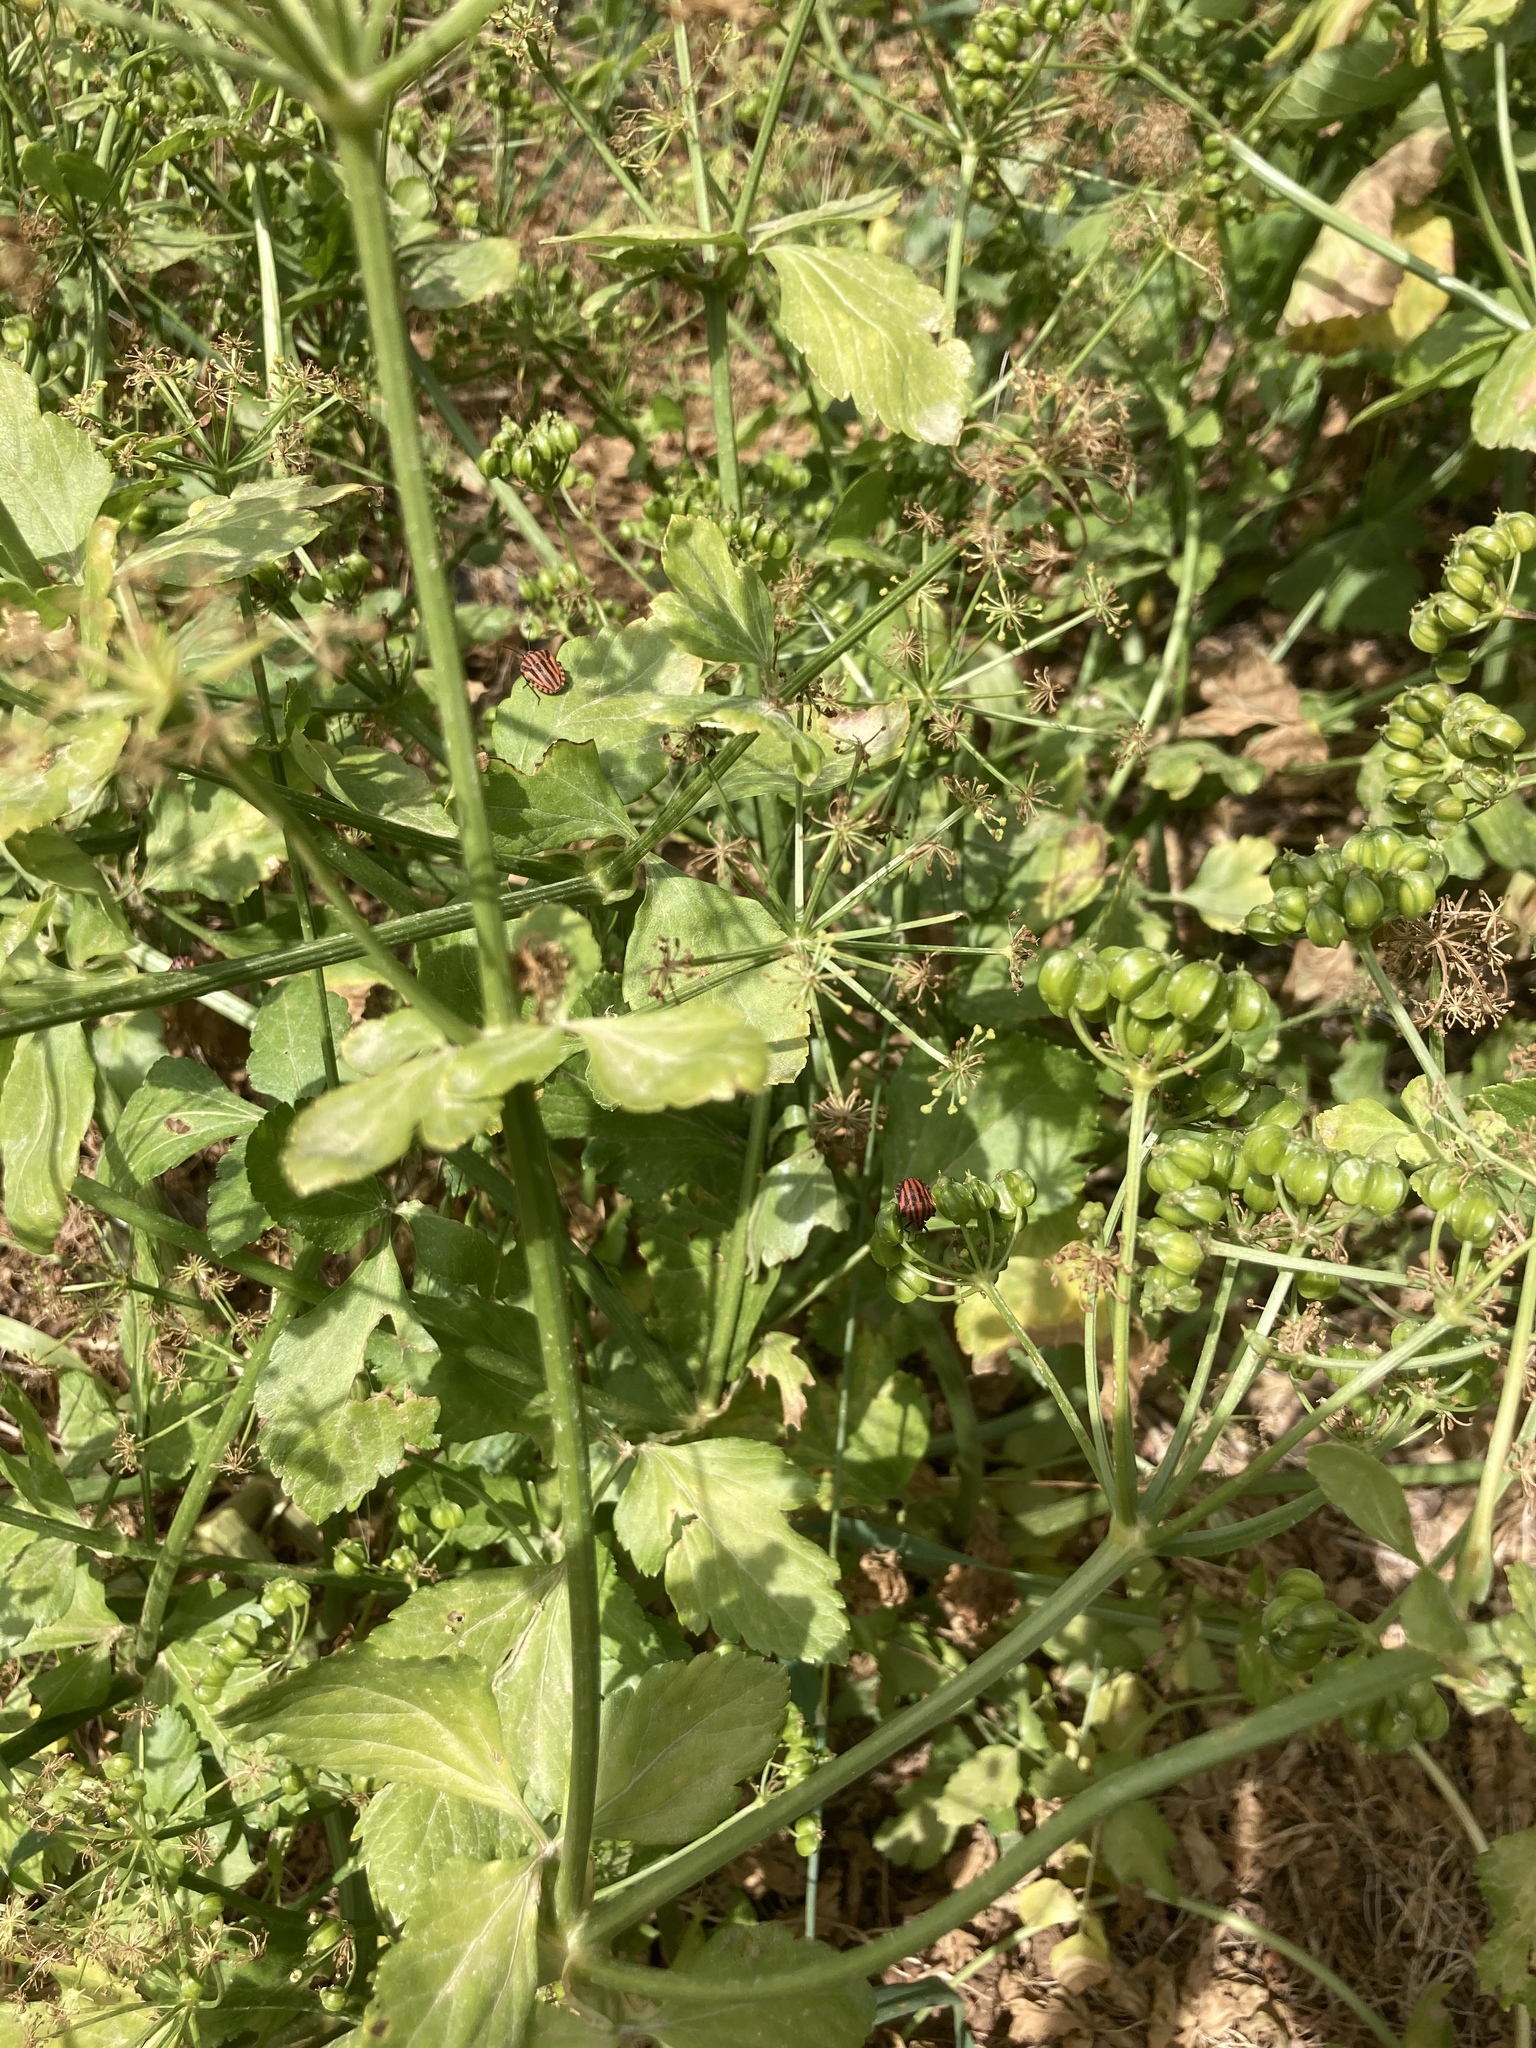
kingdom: Animalia
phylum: Arthropoda
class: Insecta
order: Hemiptera
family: Pentatomidae
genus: Graphosoma
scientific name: Graphosoma italicum
